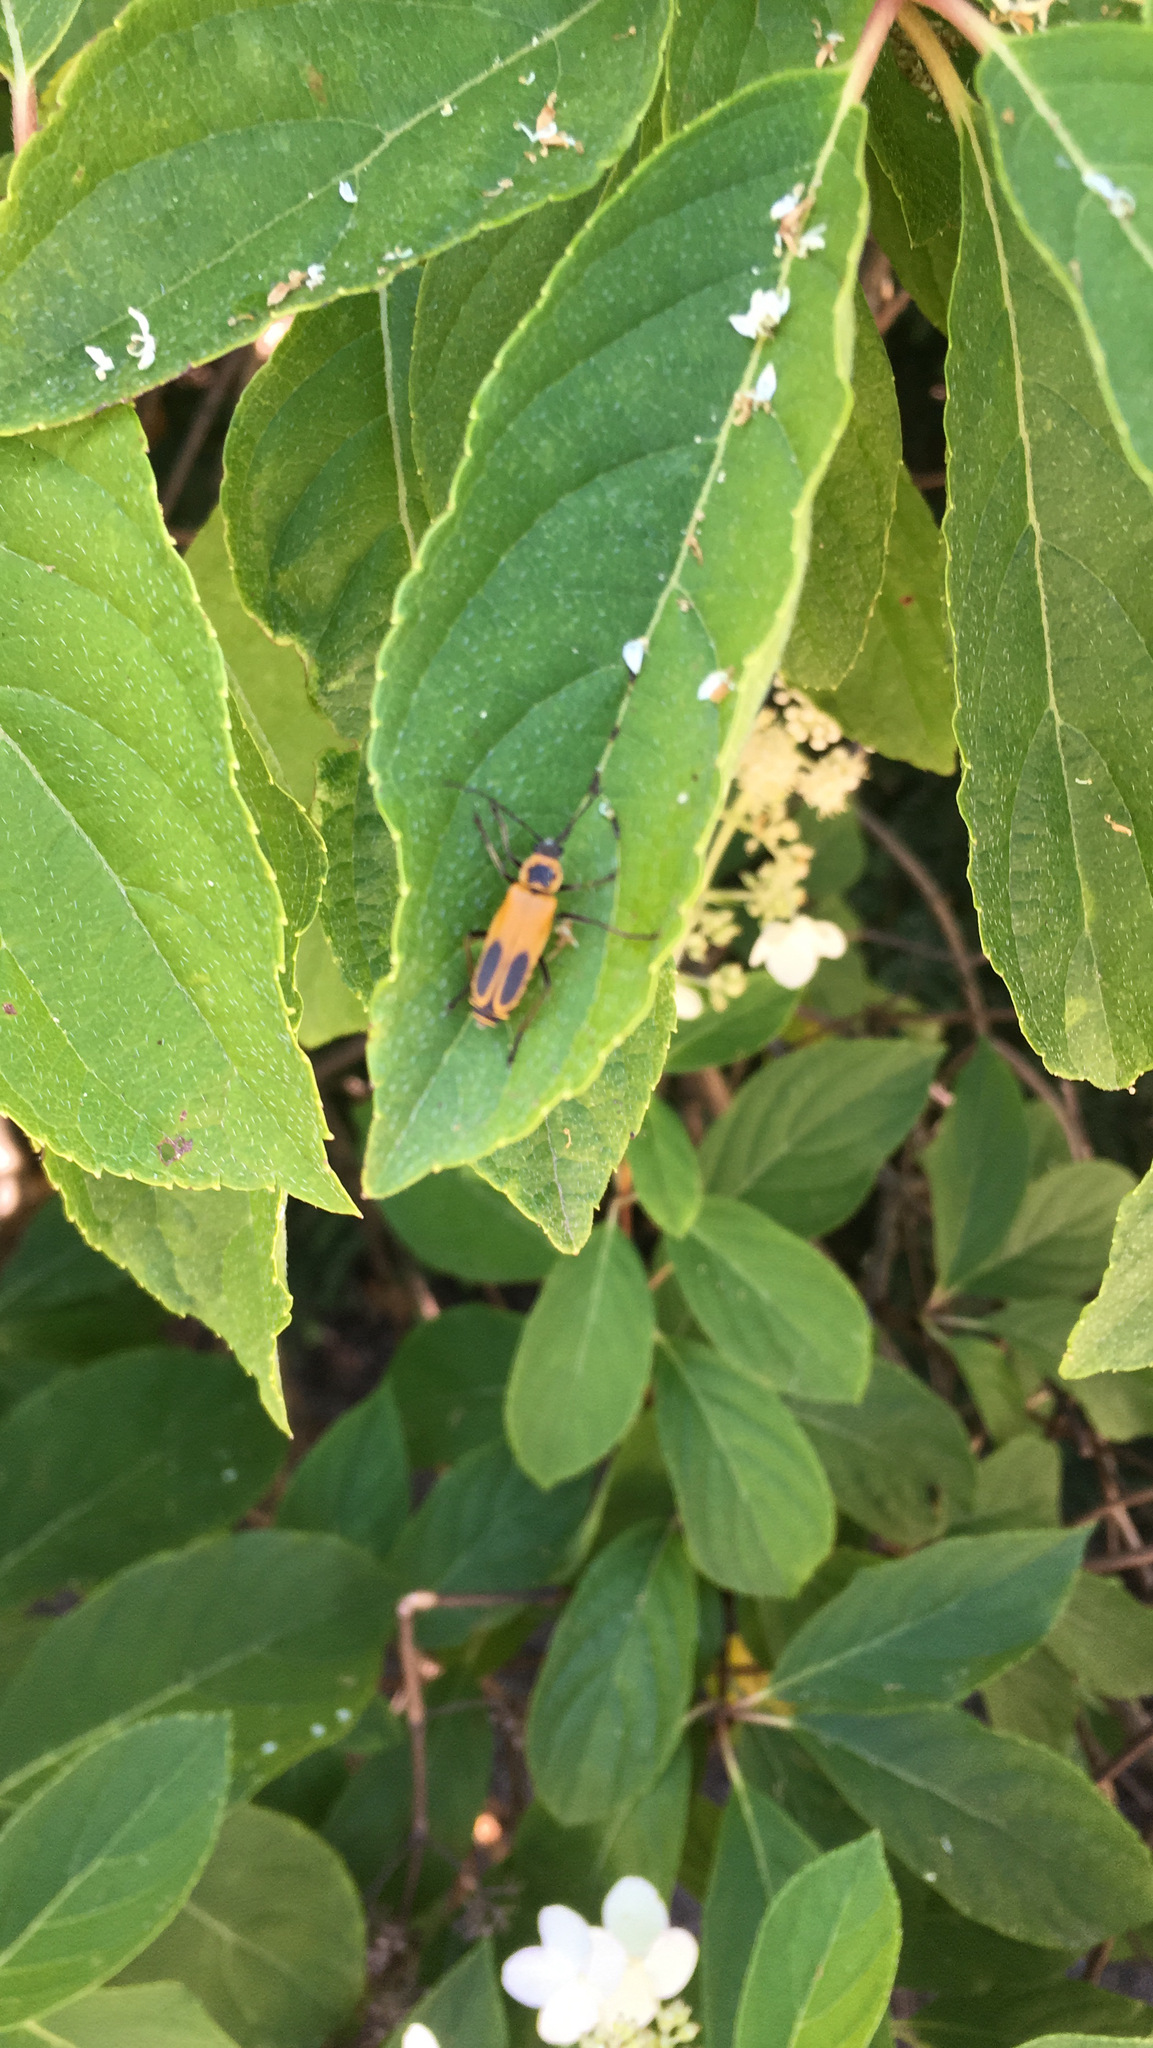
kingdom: Animalia
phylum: Arthropoda
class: Insecta
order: Coleoptera
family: Cantharidae
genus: Chauliognathus
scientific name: Chauliognathus pensylvanicus
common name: Goldenrod soldier beetle
